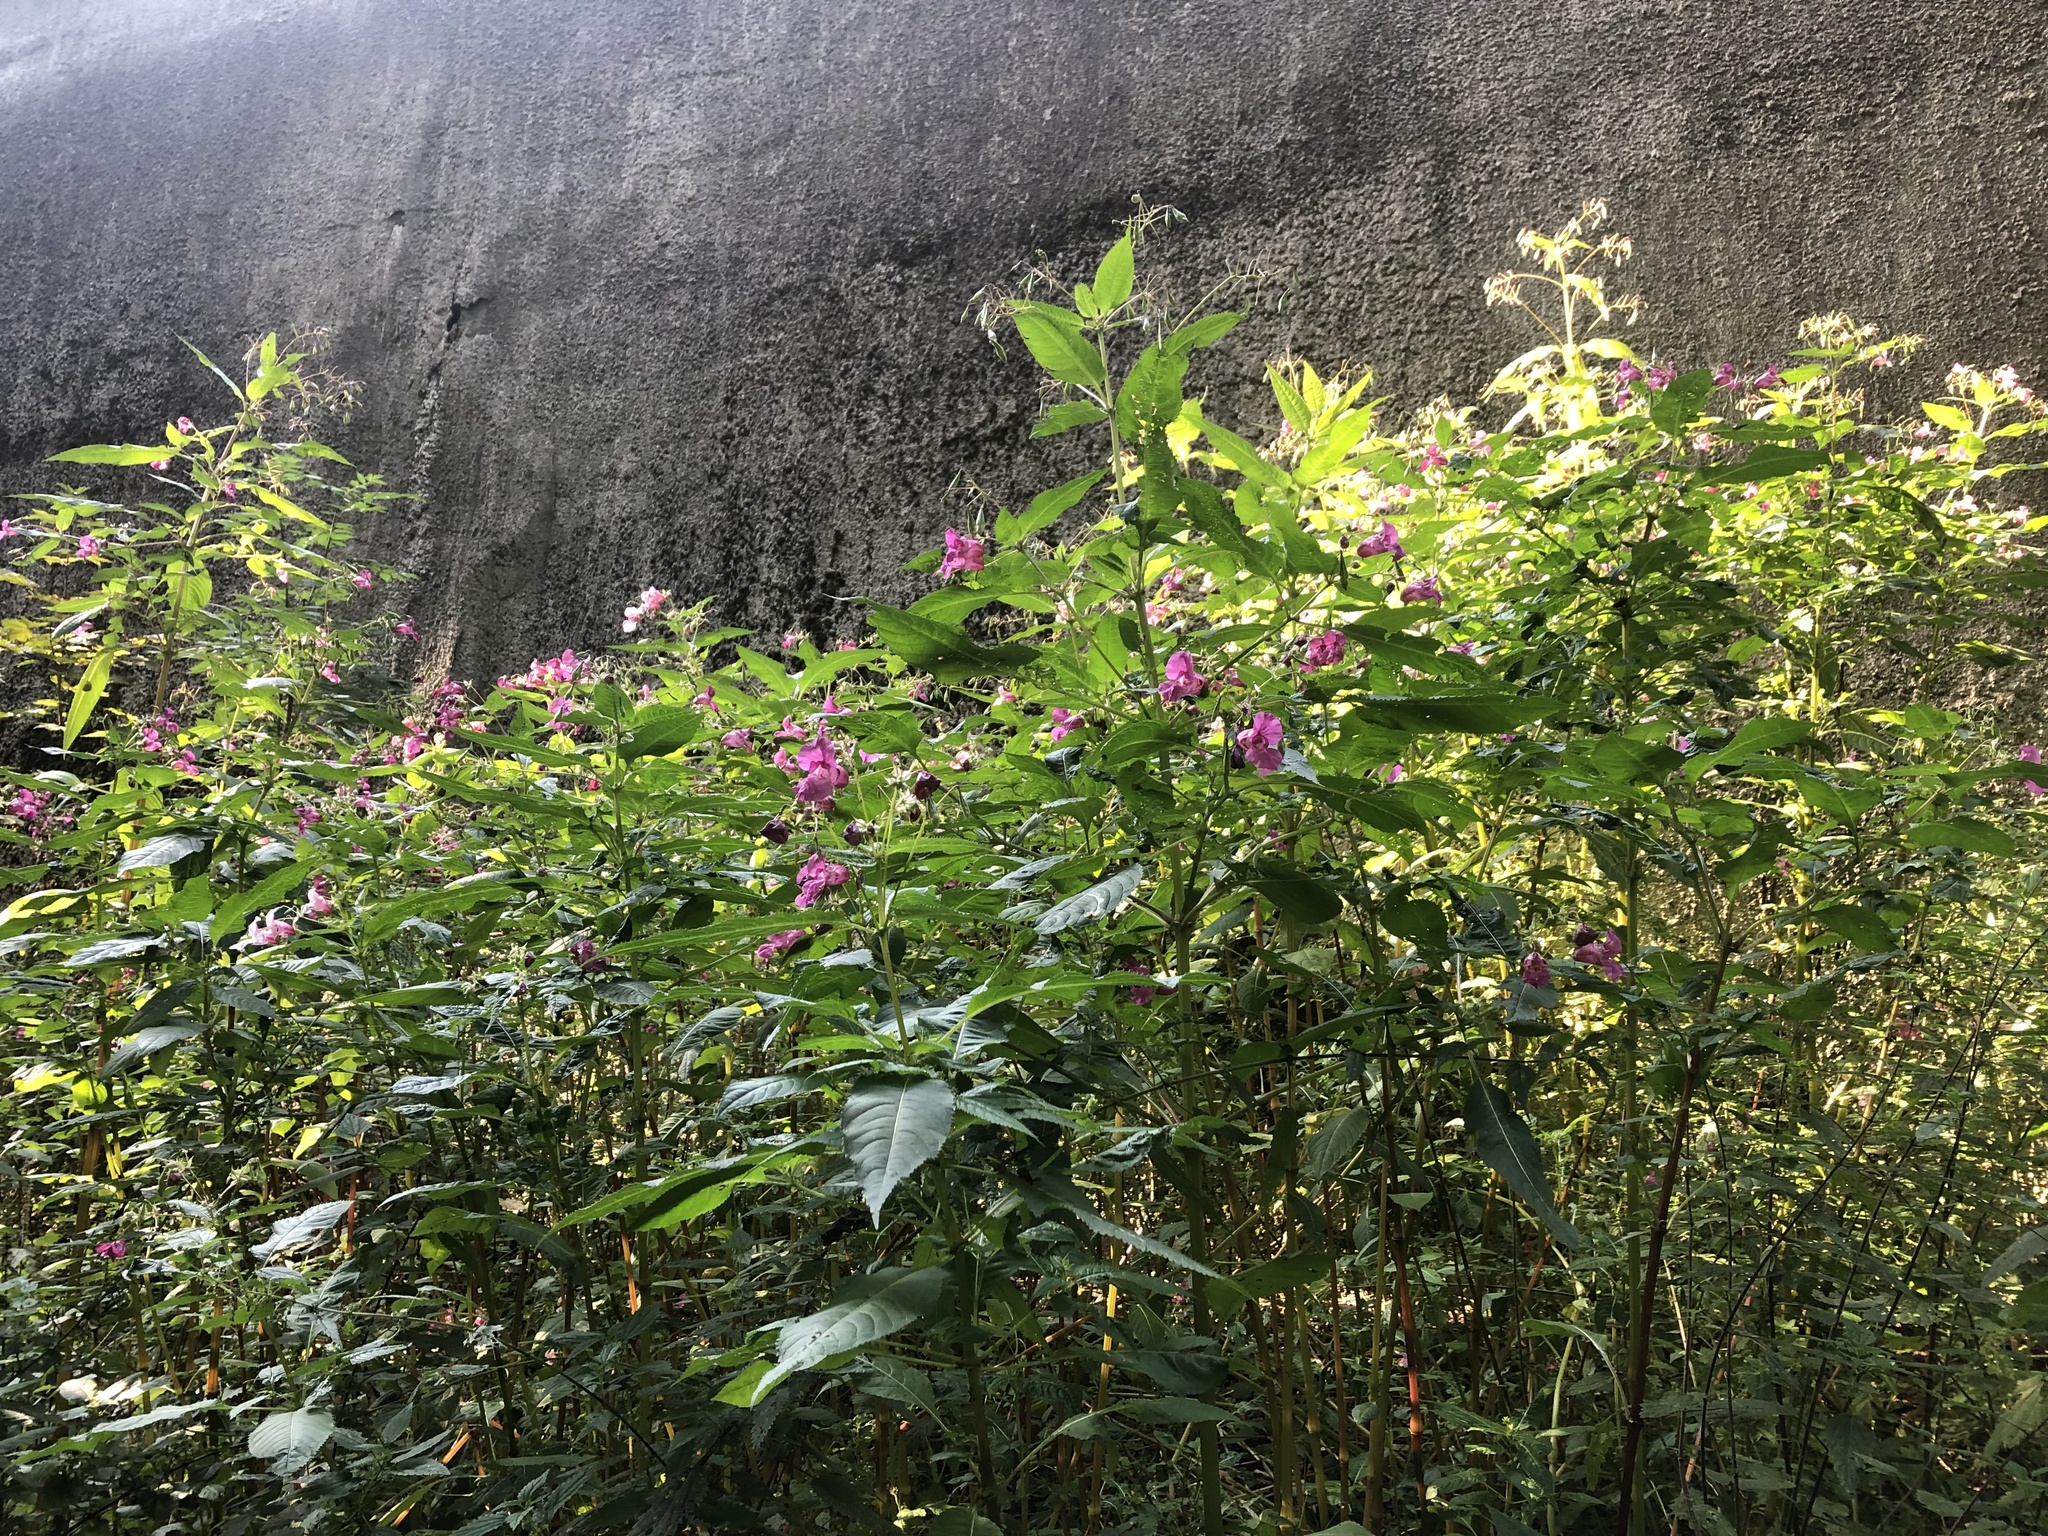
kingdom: Plantae
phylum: Tracheophyta
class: Magnoliopsida
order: Ericales
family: Balsaminaceae
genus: Impatiens
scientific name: Impatiens glandulifera
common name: Himalayan balsam
